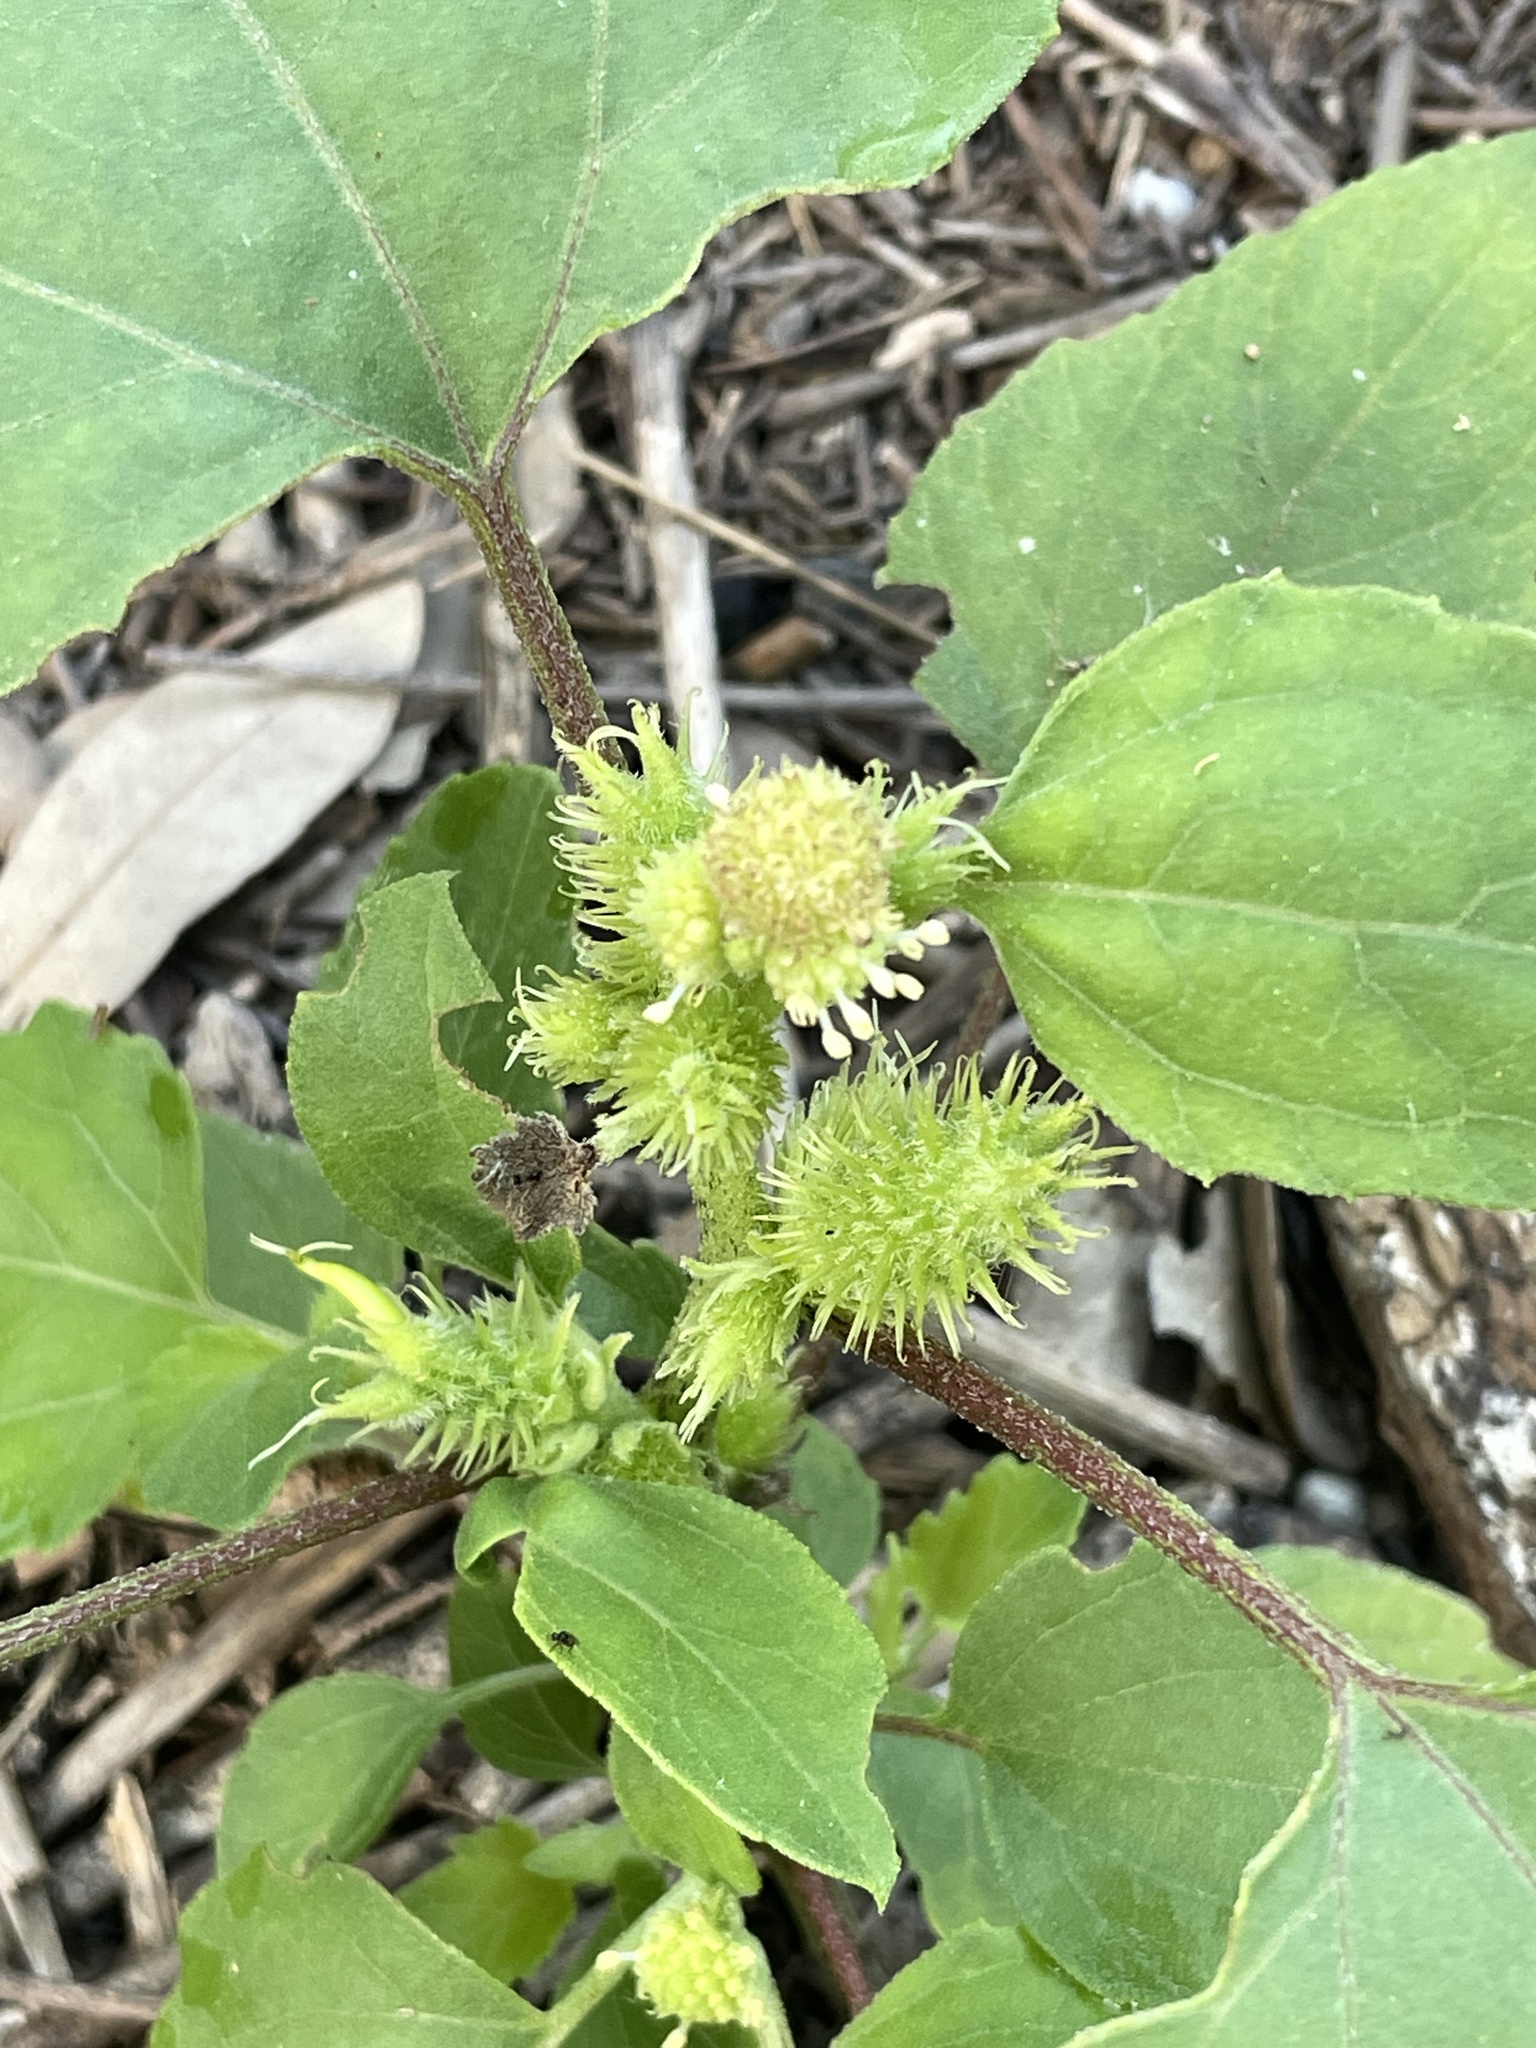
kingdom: Plantae
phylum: Tracheophyta
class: Magnoliopsida
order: Asterales
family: Asteraceae
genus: Xanthium
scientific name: Xanthium strumarium
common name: Rough cocklebur
